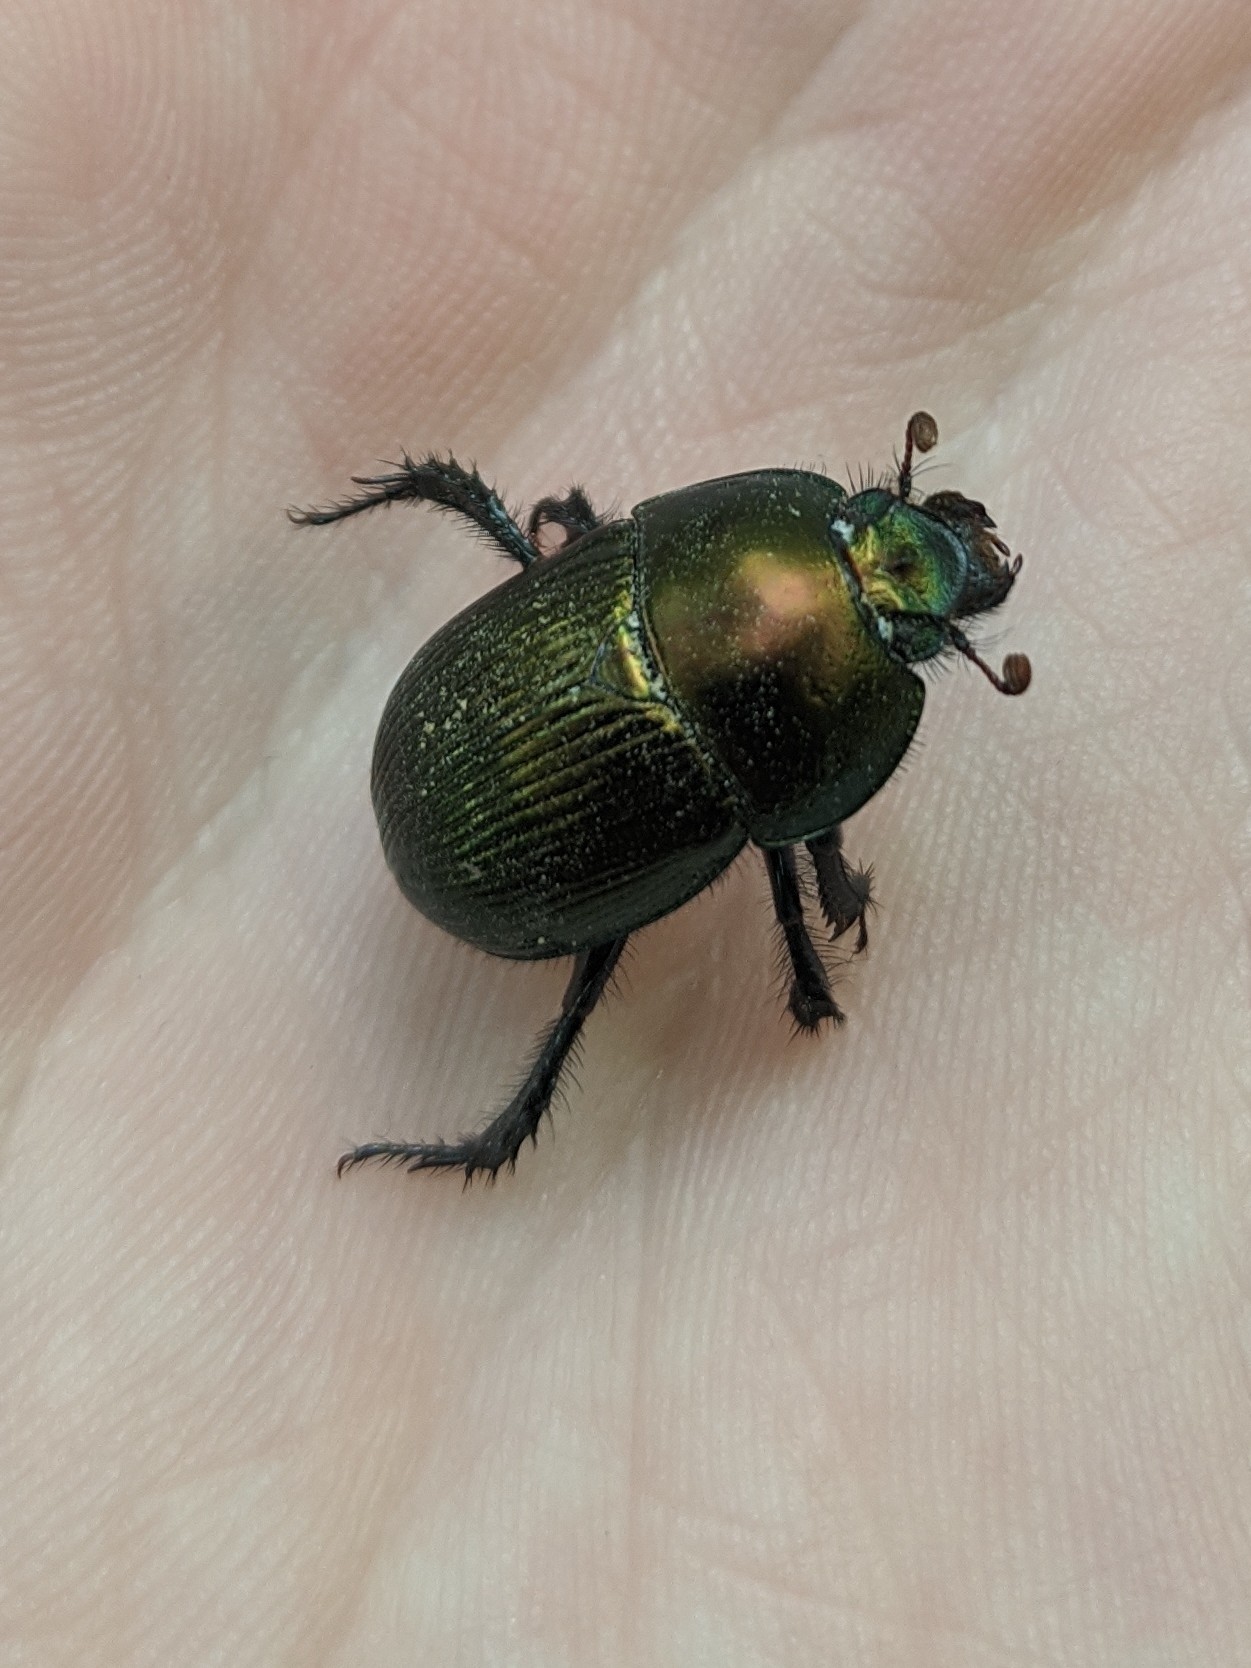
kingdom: Animalia
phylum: Arthropoda
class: Insecta
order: Coleoptera
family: Geotrupidae
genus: Geotrupes
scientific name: Geotrupes splendidus
